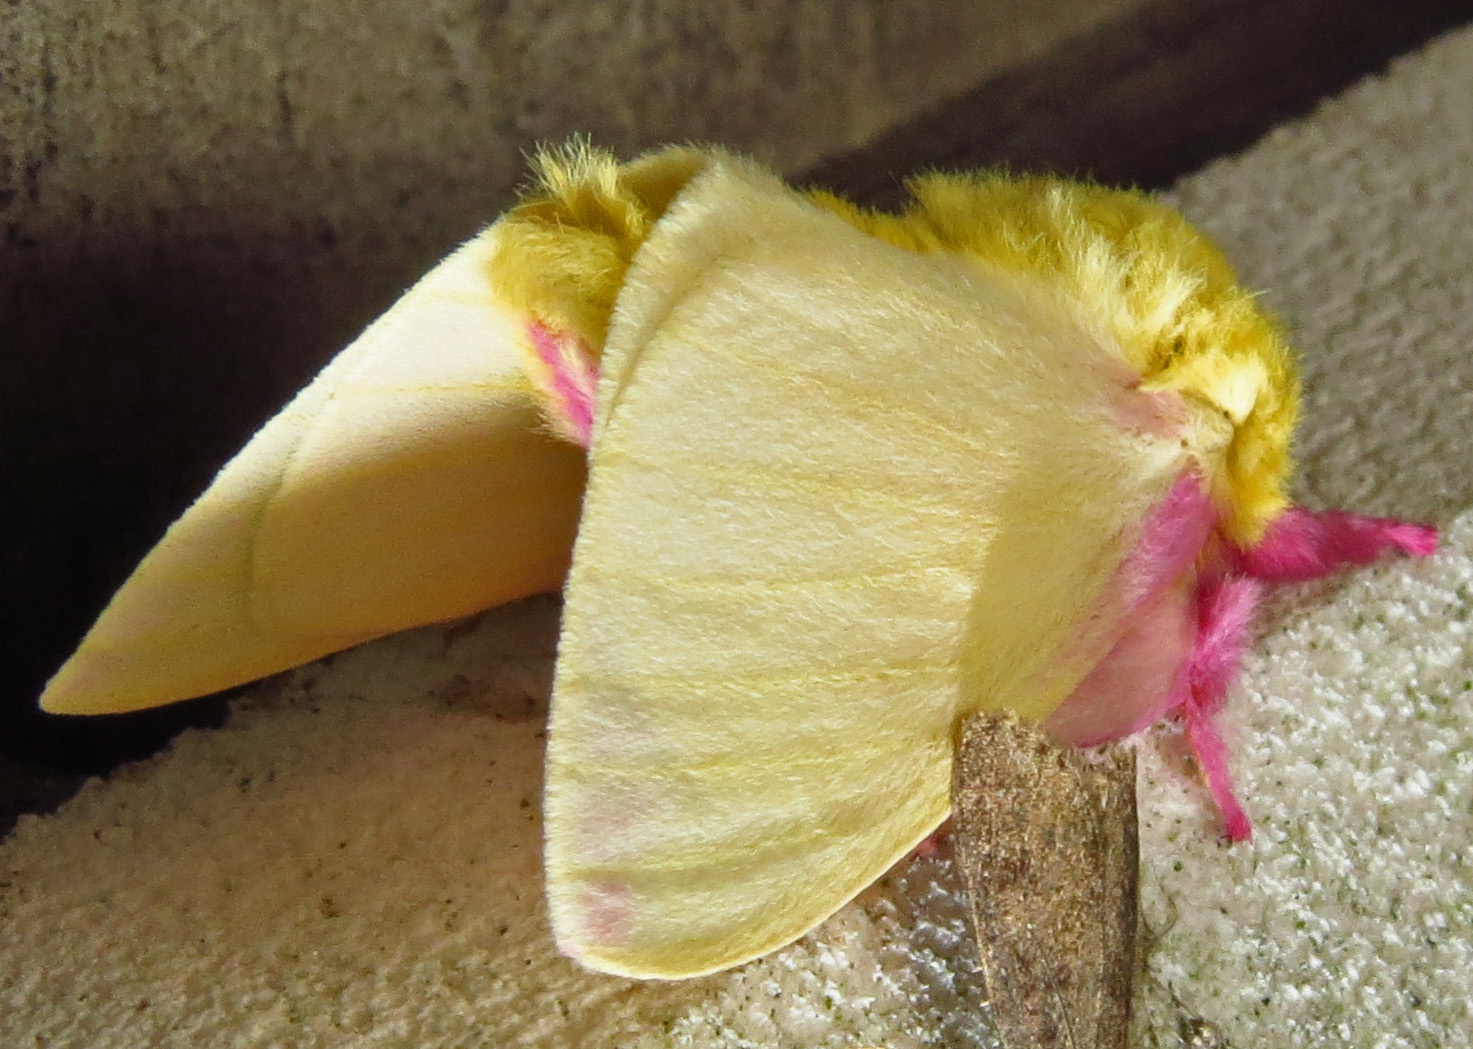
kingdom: Animalia
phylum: Arthropoda
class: Insecta
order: Lepidoptera
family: Saturniidae
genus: Dryocampa
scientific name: Dryocampa rubicunda
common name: Rosy maple moth
